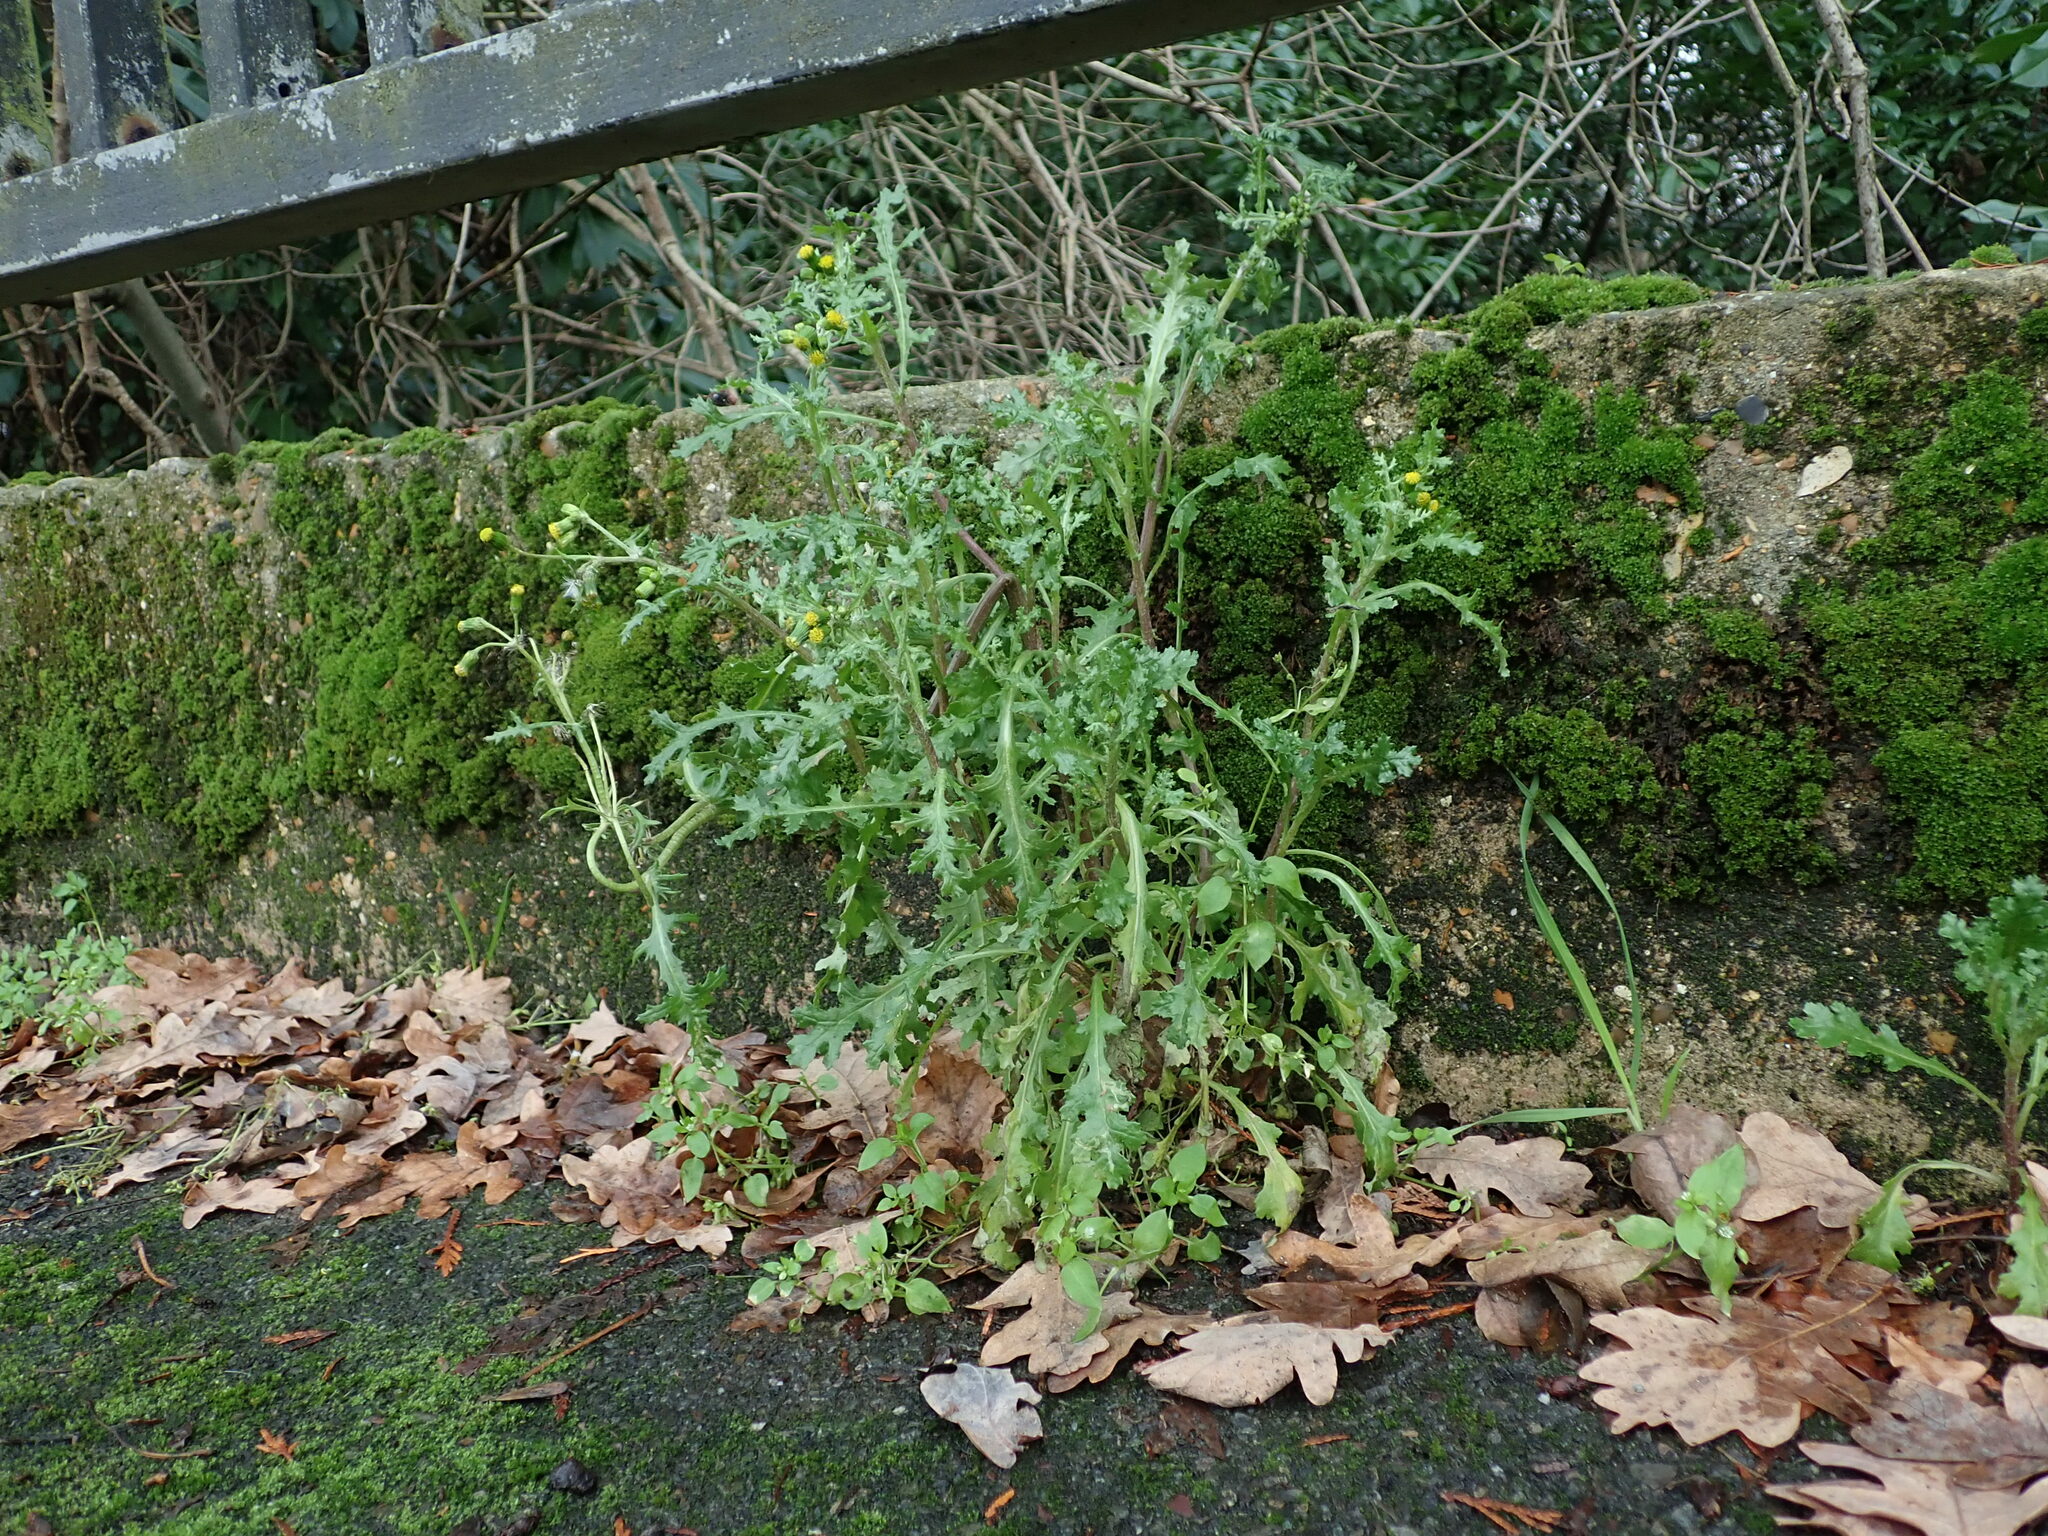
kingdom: Plantae
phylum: Tracheophyta
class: Magnoliopsida
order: Asterales
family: Asteraceae
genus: Senecio
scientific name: Senecio vulgaris
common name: Old-man-in-the-spring
